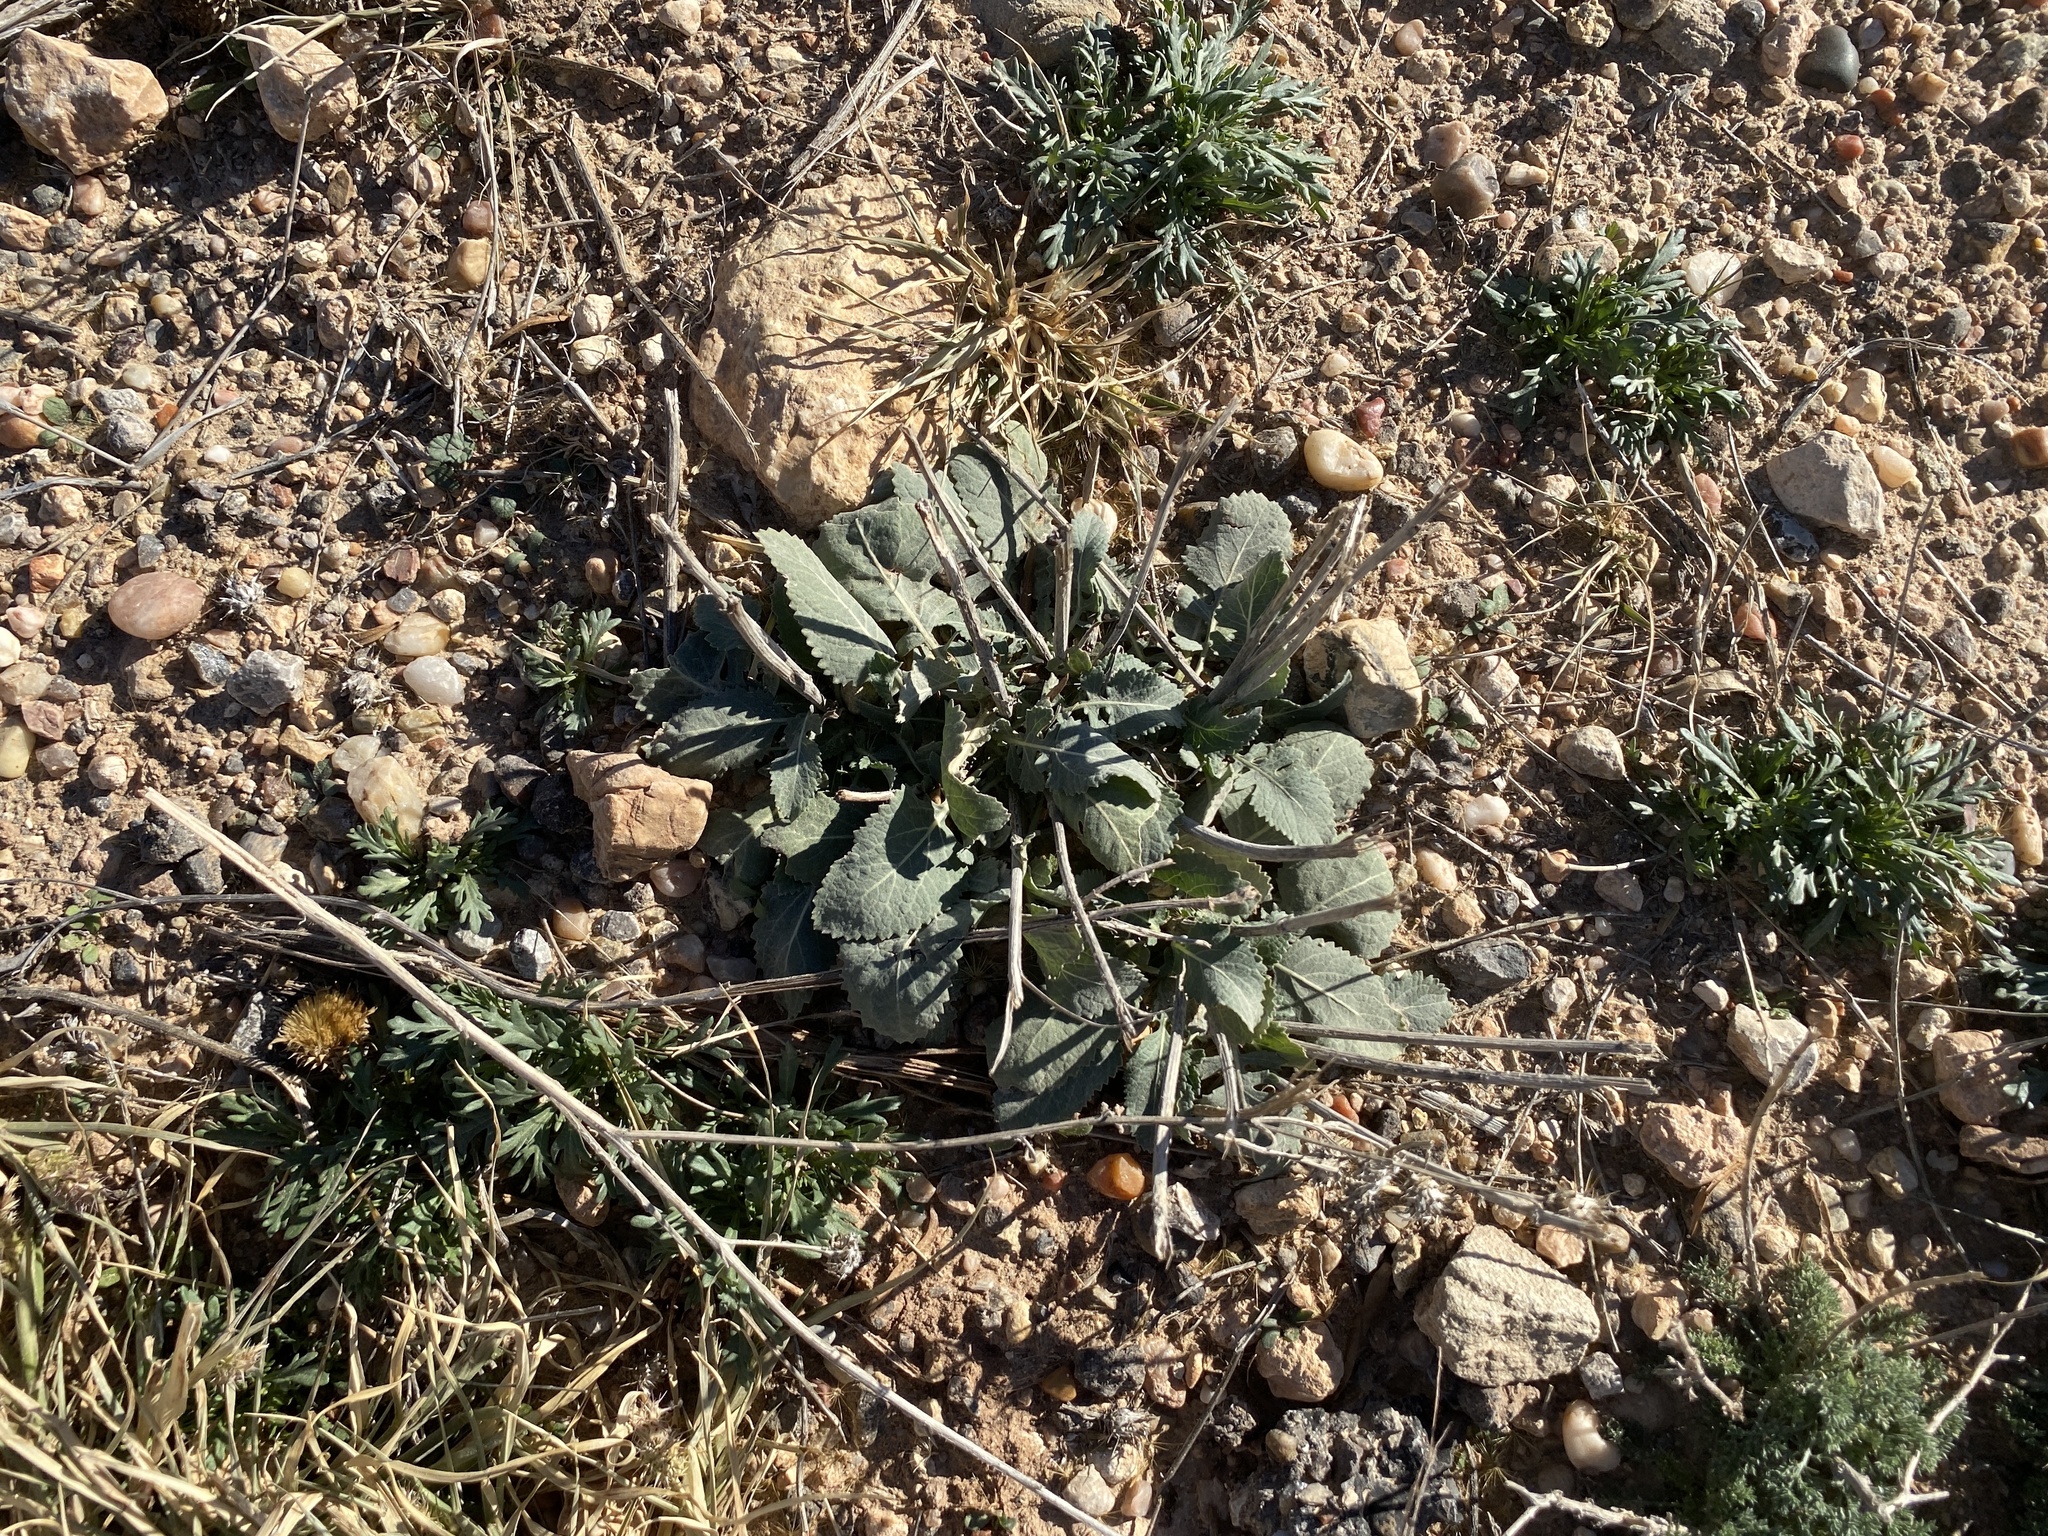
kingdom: Plantae
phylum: Tracheophyta
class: Magnoliopsida
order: Asterales
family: Asteraceae
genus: Berlandiera
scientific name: Berlandiera lyrata
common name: Chocolate-flower
